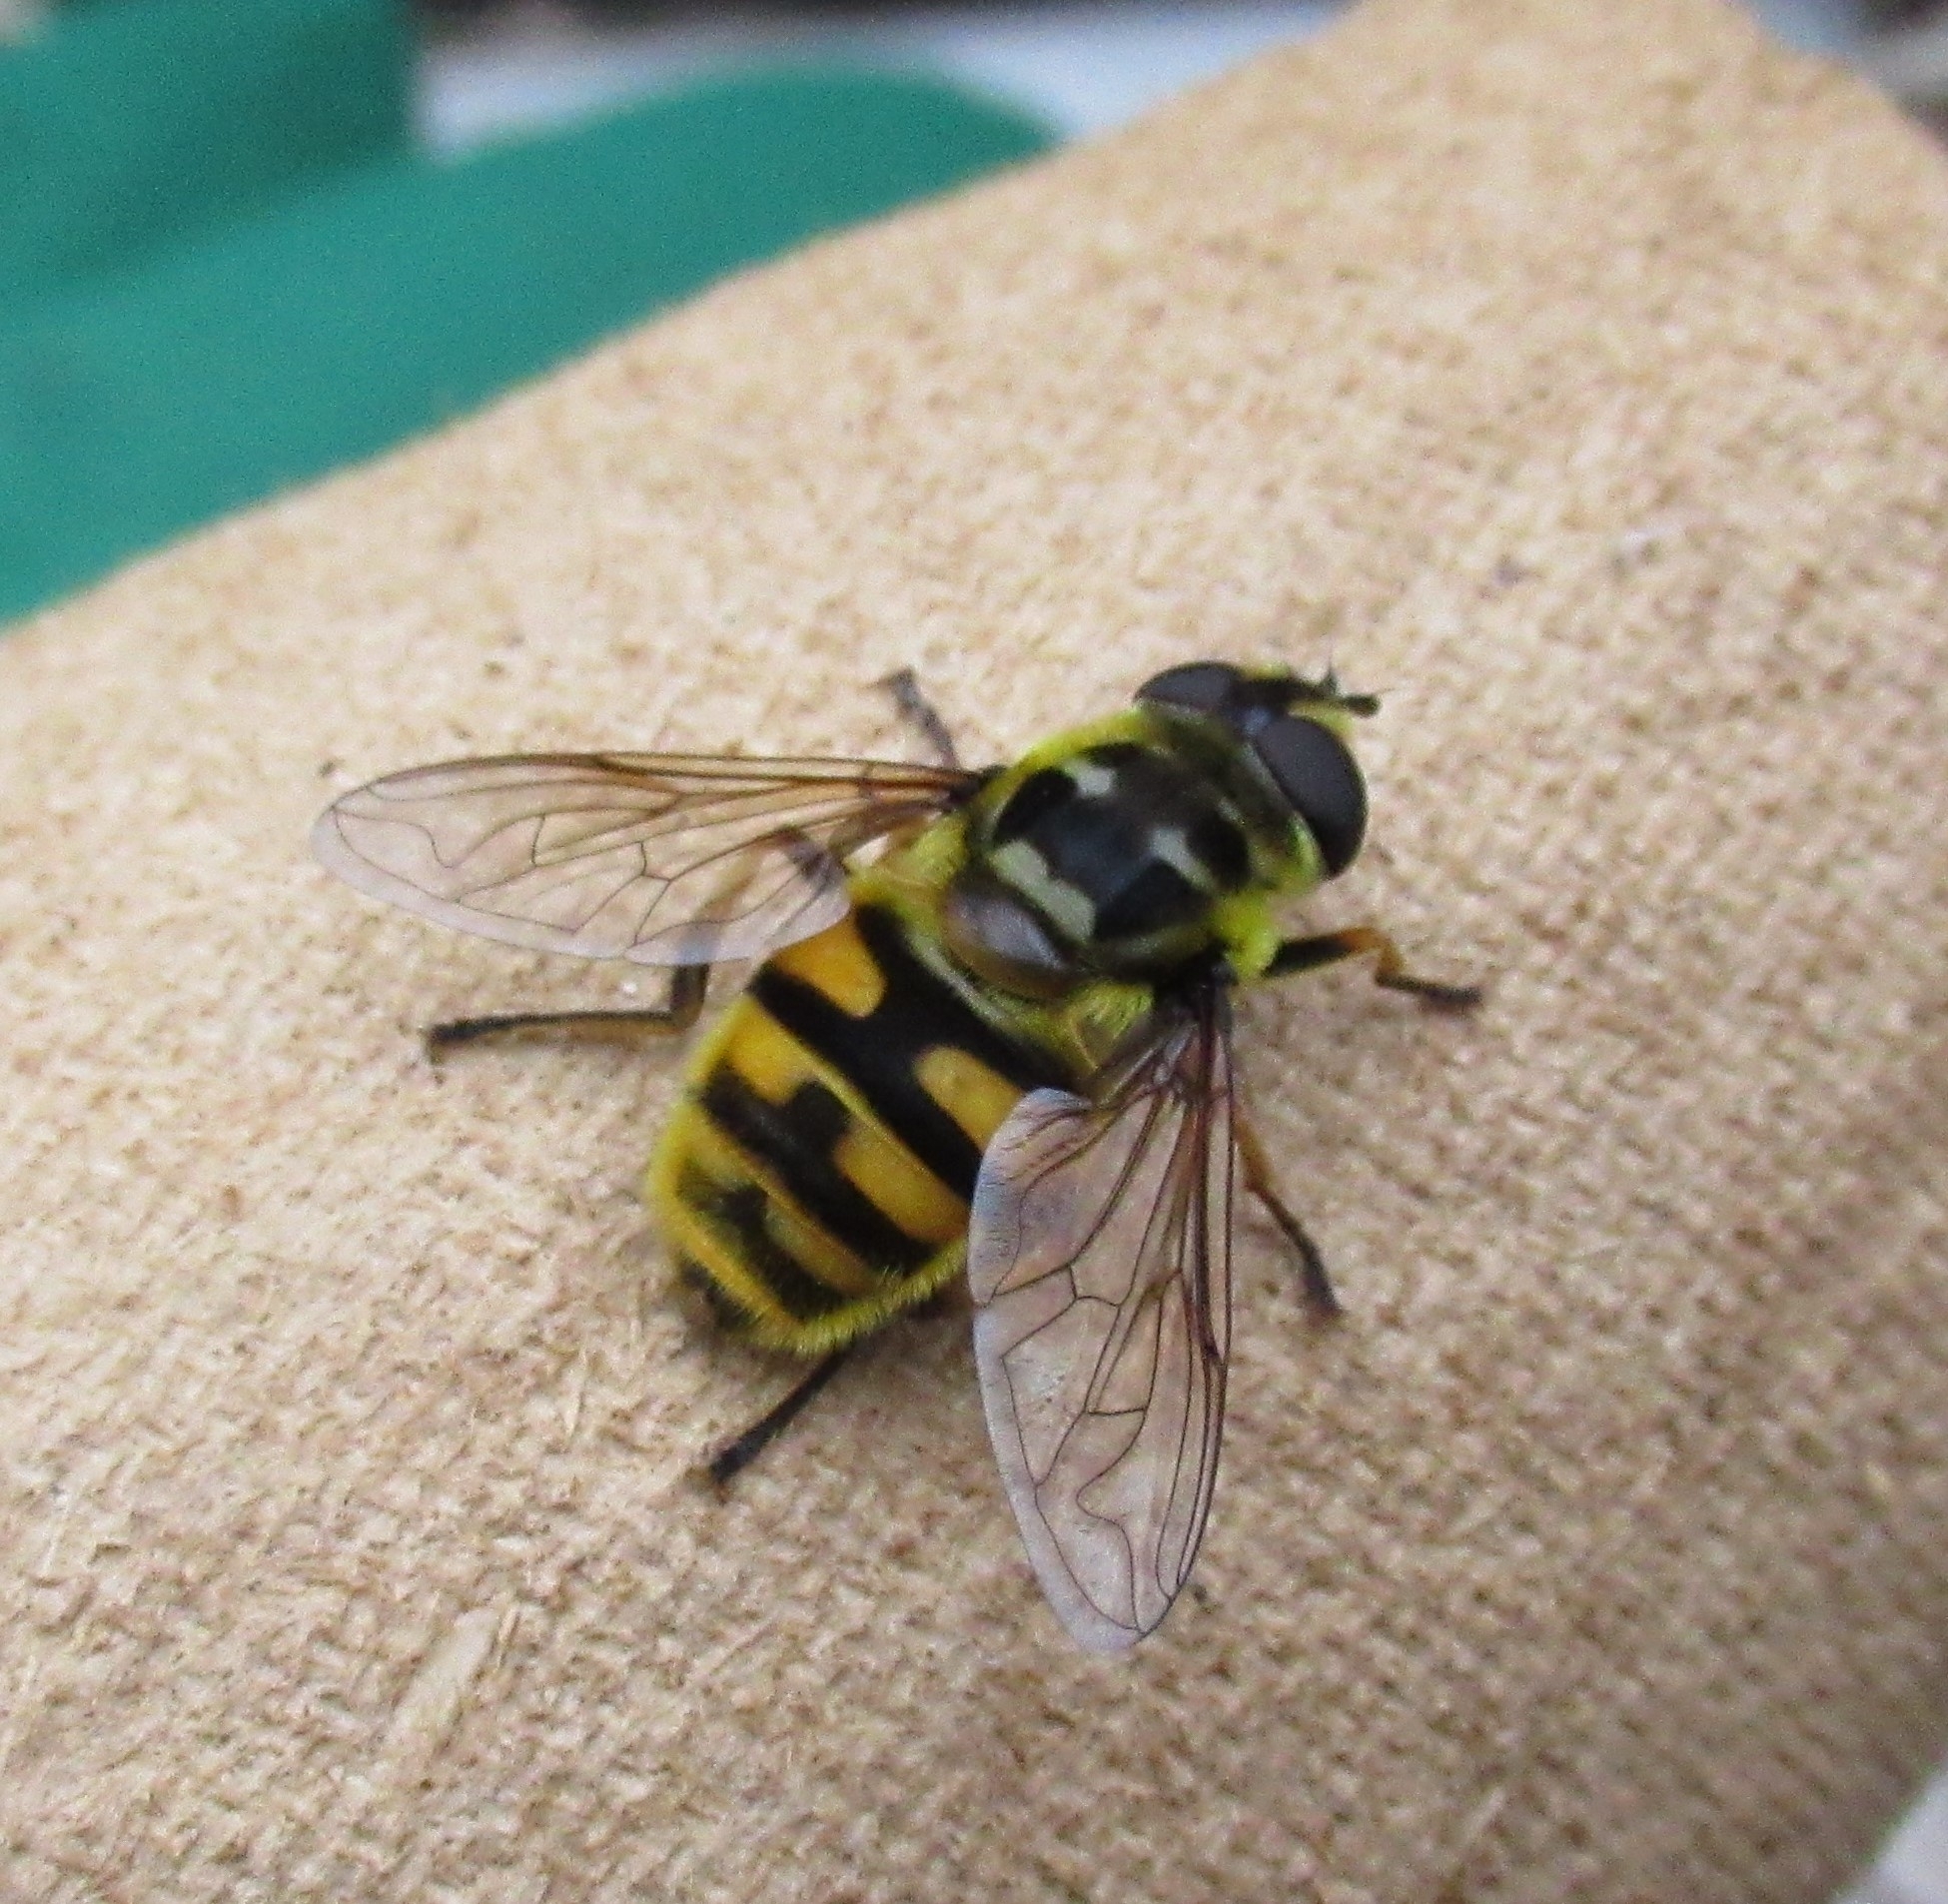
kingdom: Animalia
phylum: Arthropoda
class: Insecta
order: Diptera
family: Syrphidae
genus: Myathropa
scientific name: Myathropa florea
